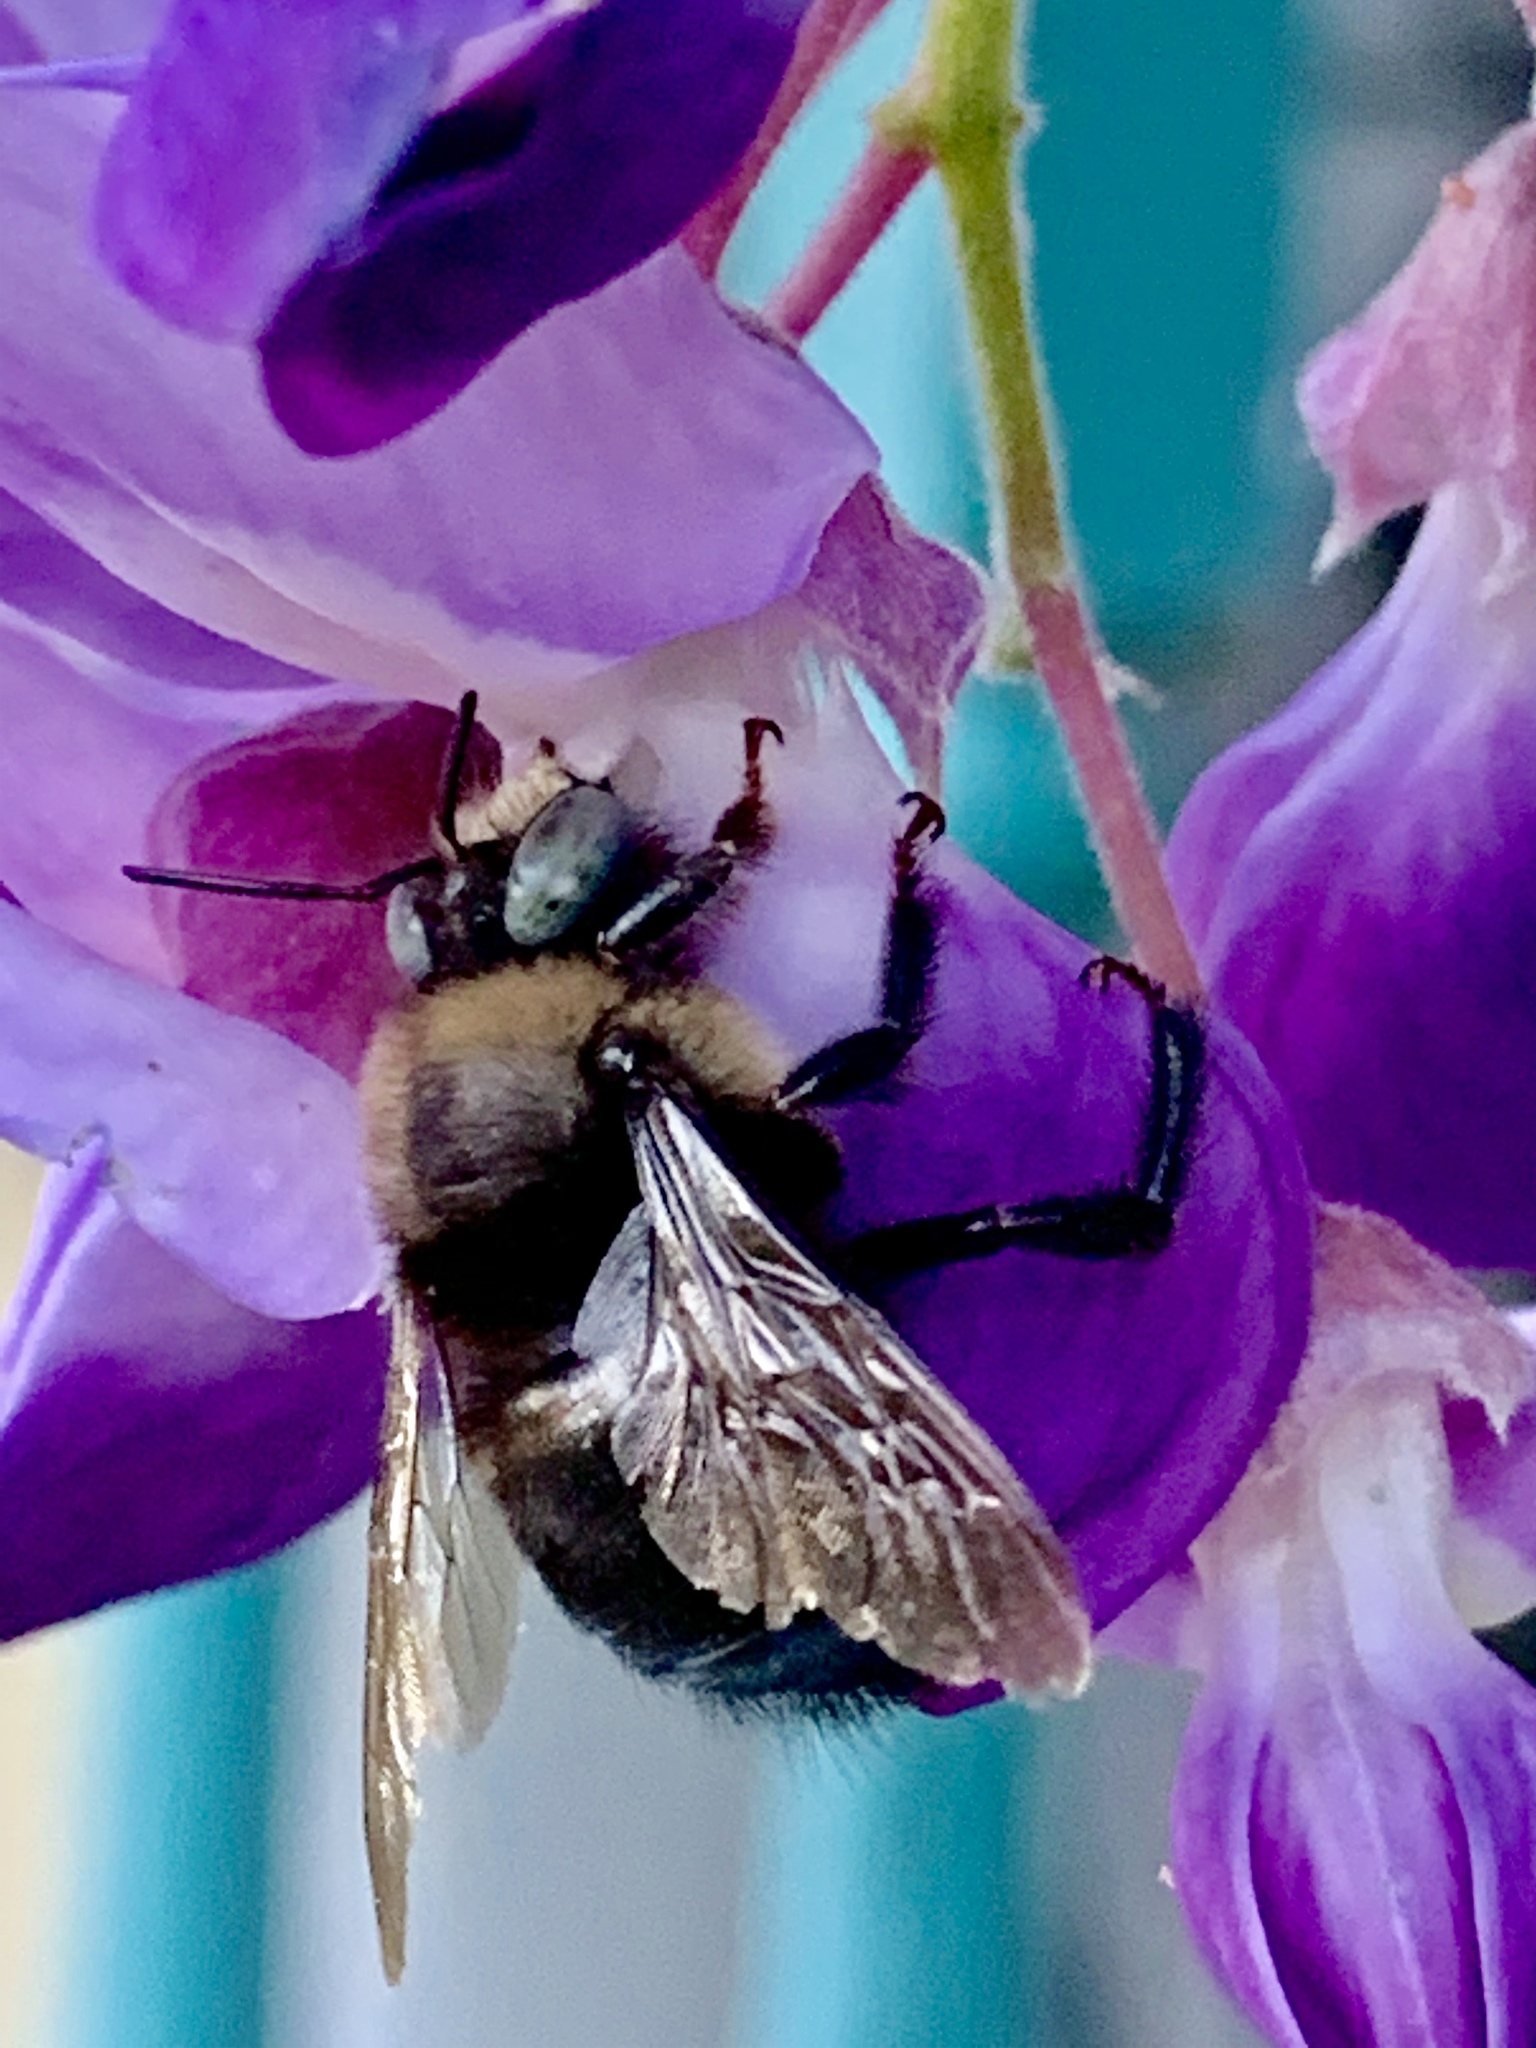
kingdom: Animalia
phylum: Arthropoda
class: Insecta
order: Hymenoptera
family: Apidae
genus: Xylocopa
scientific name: Xylocopa tabaniformis
